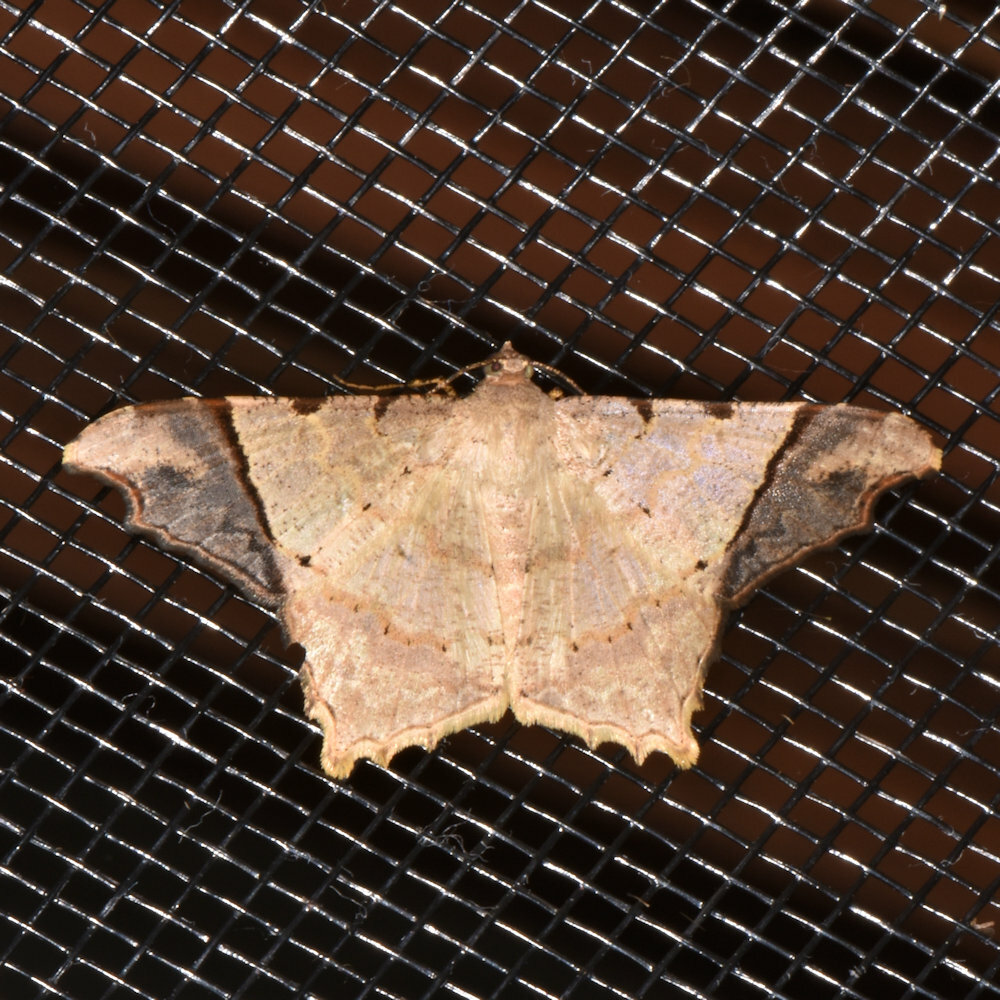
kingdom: Animalia
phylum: Arthropoda
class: Insecta
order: Lepidoptera
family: Geometridae
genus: Macaria
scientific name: Macaria gambarina
